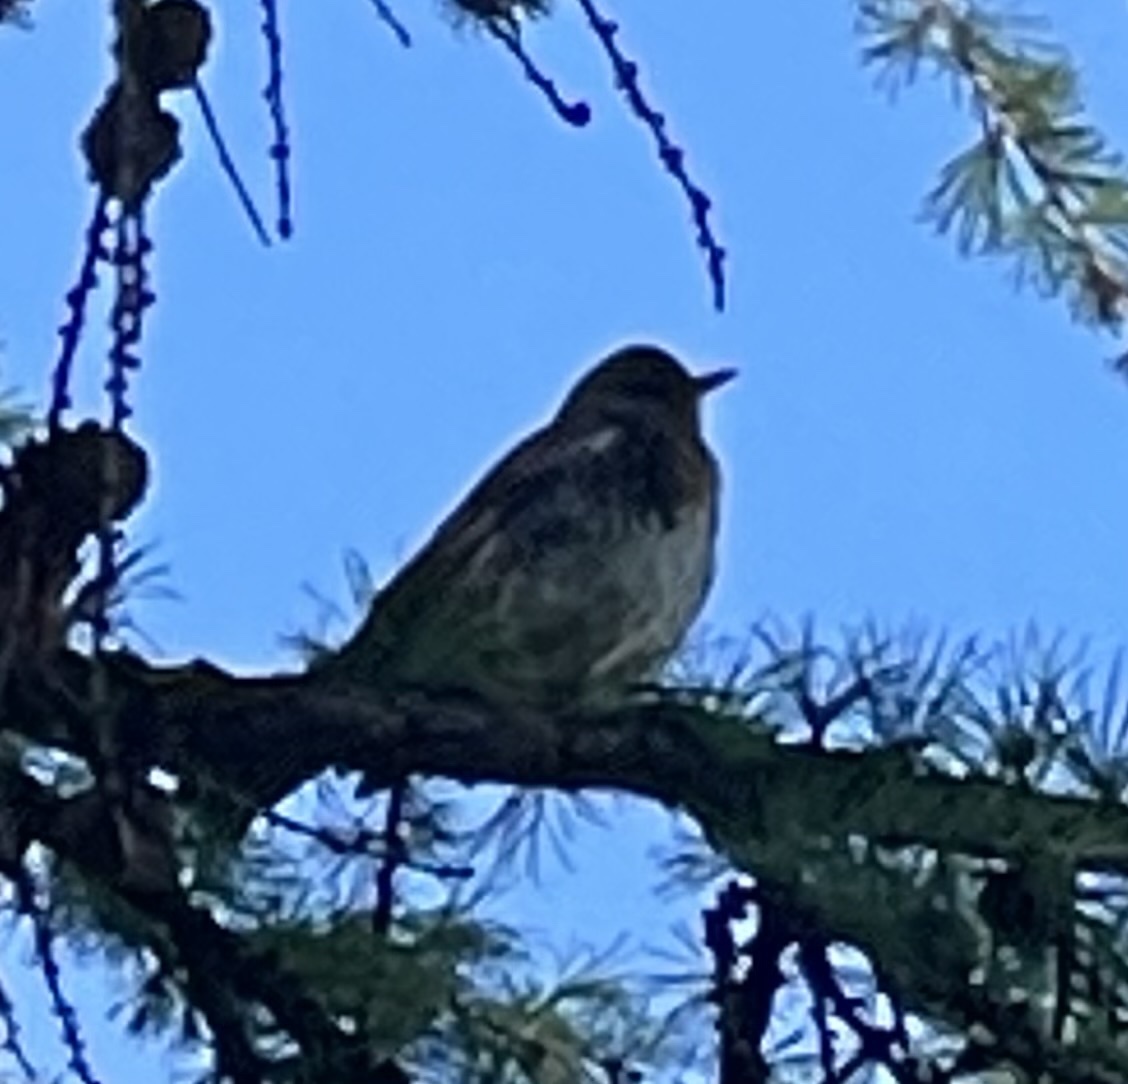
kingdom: Animalia
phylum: Chordata
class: Aves
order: Passeriformes
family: Turdidae
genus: Turdus
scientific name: Turdus pilaris
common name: Fieldfare
